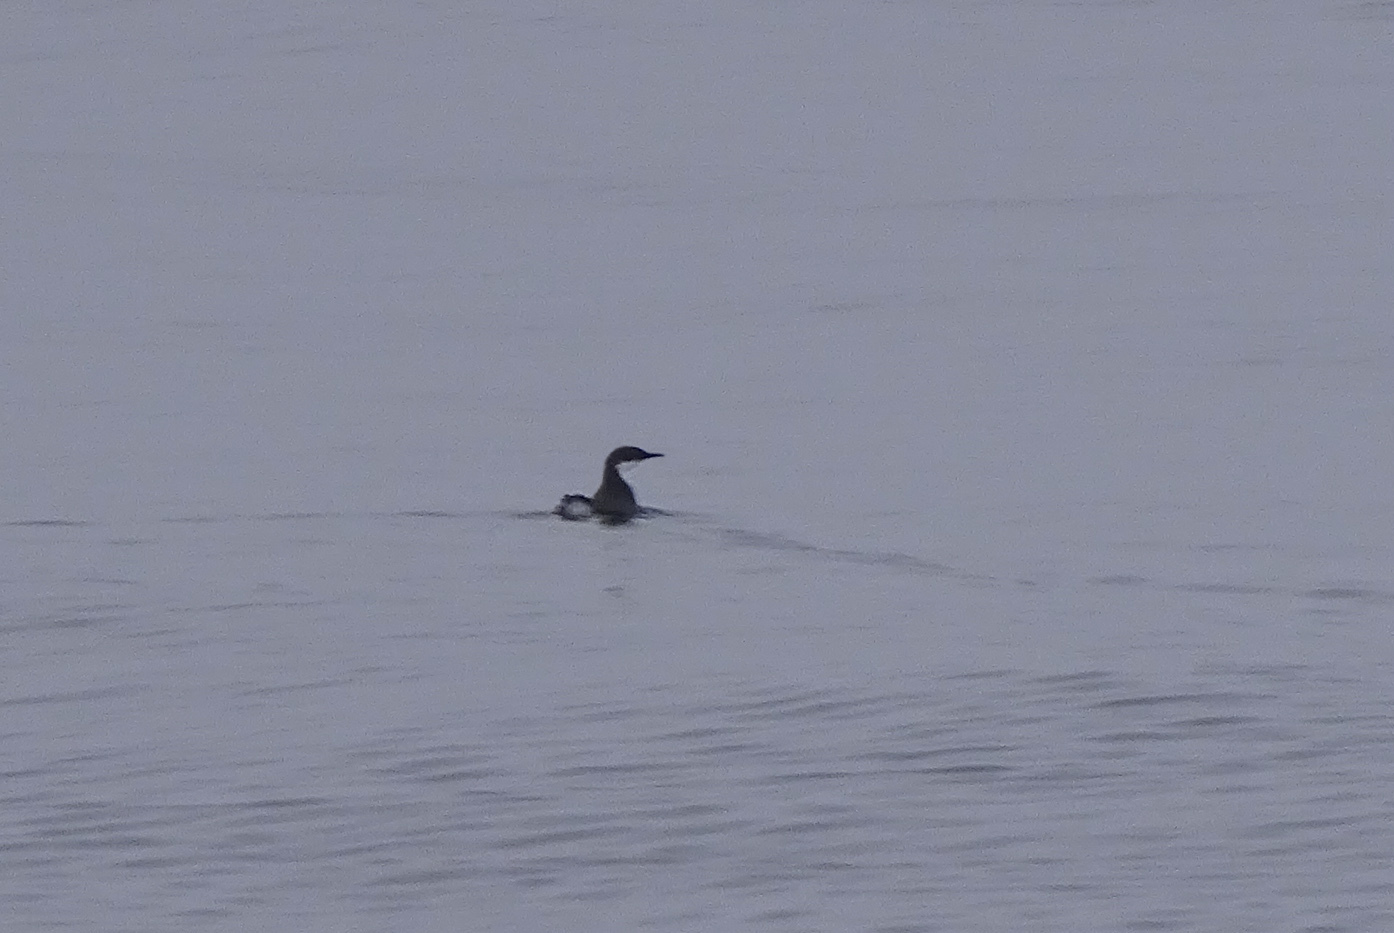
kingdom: Animalia
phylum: Chordata
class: Aves
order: Charadriiformes
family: Alcidae
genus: Synthliboramphus
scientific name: Synthliboramphus craveri
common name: Craveri's murrelet
